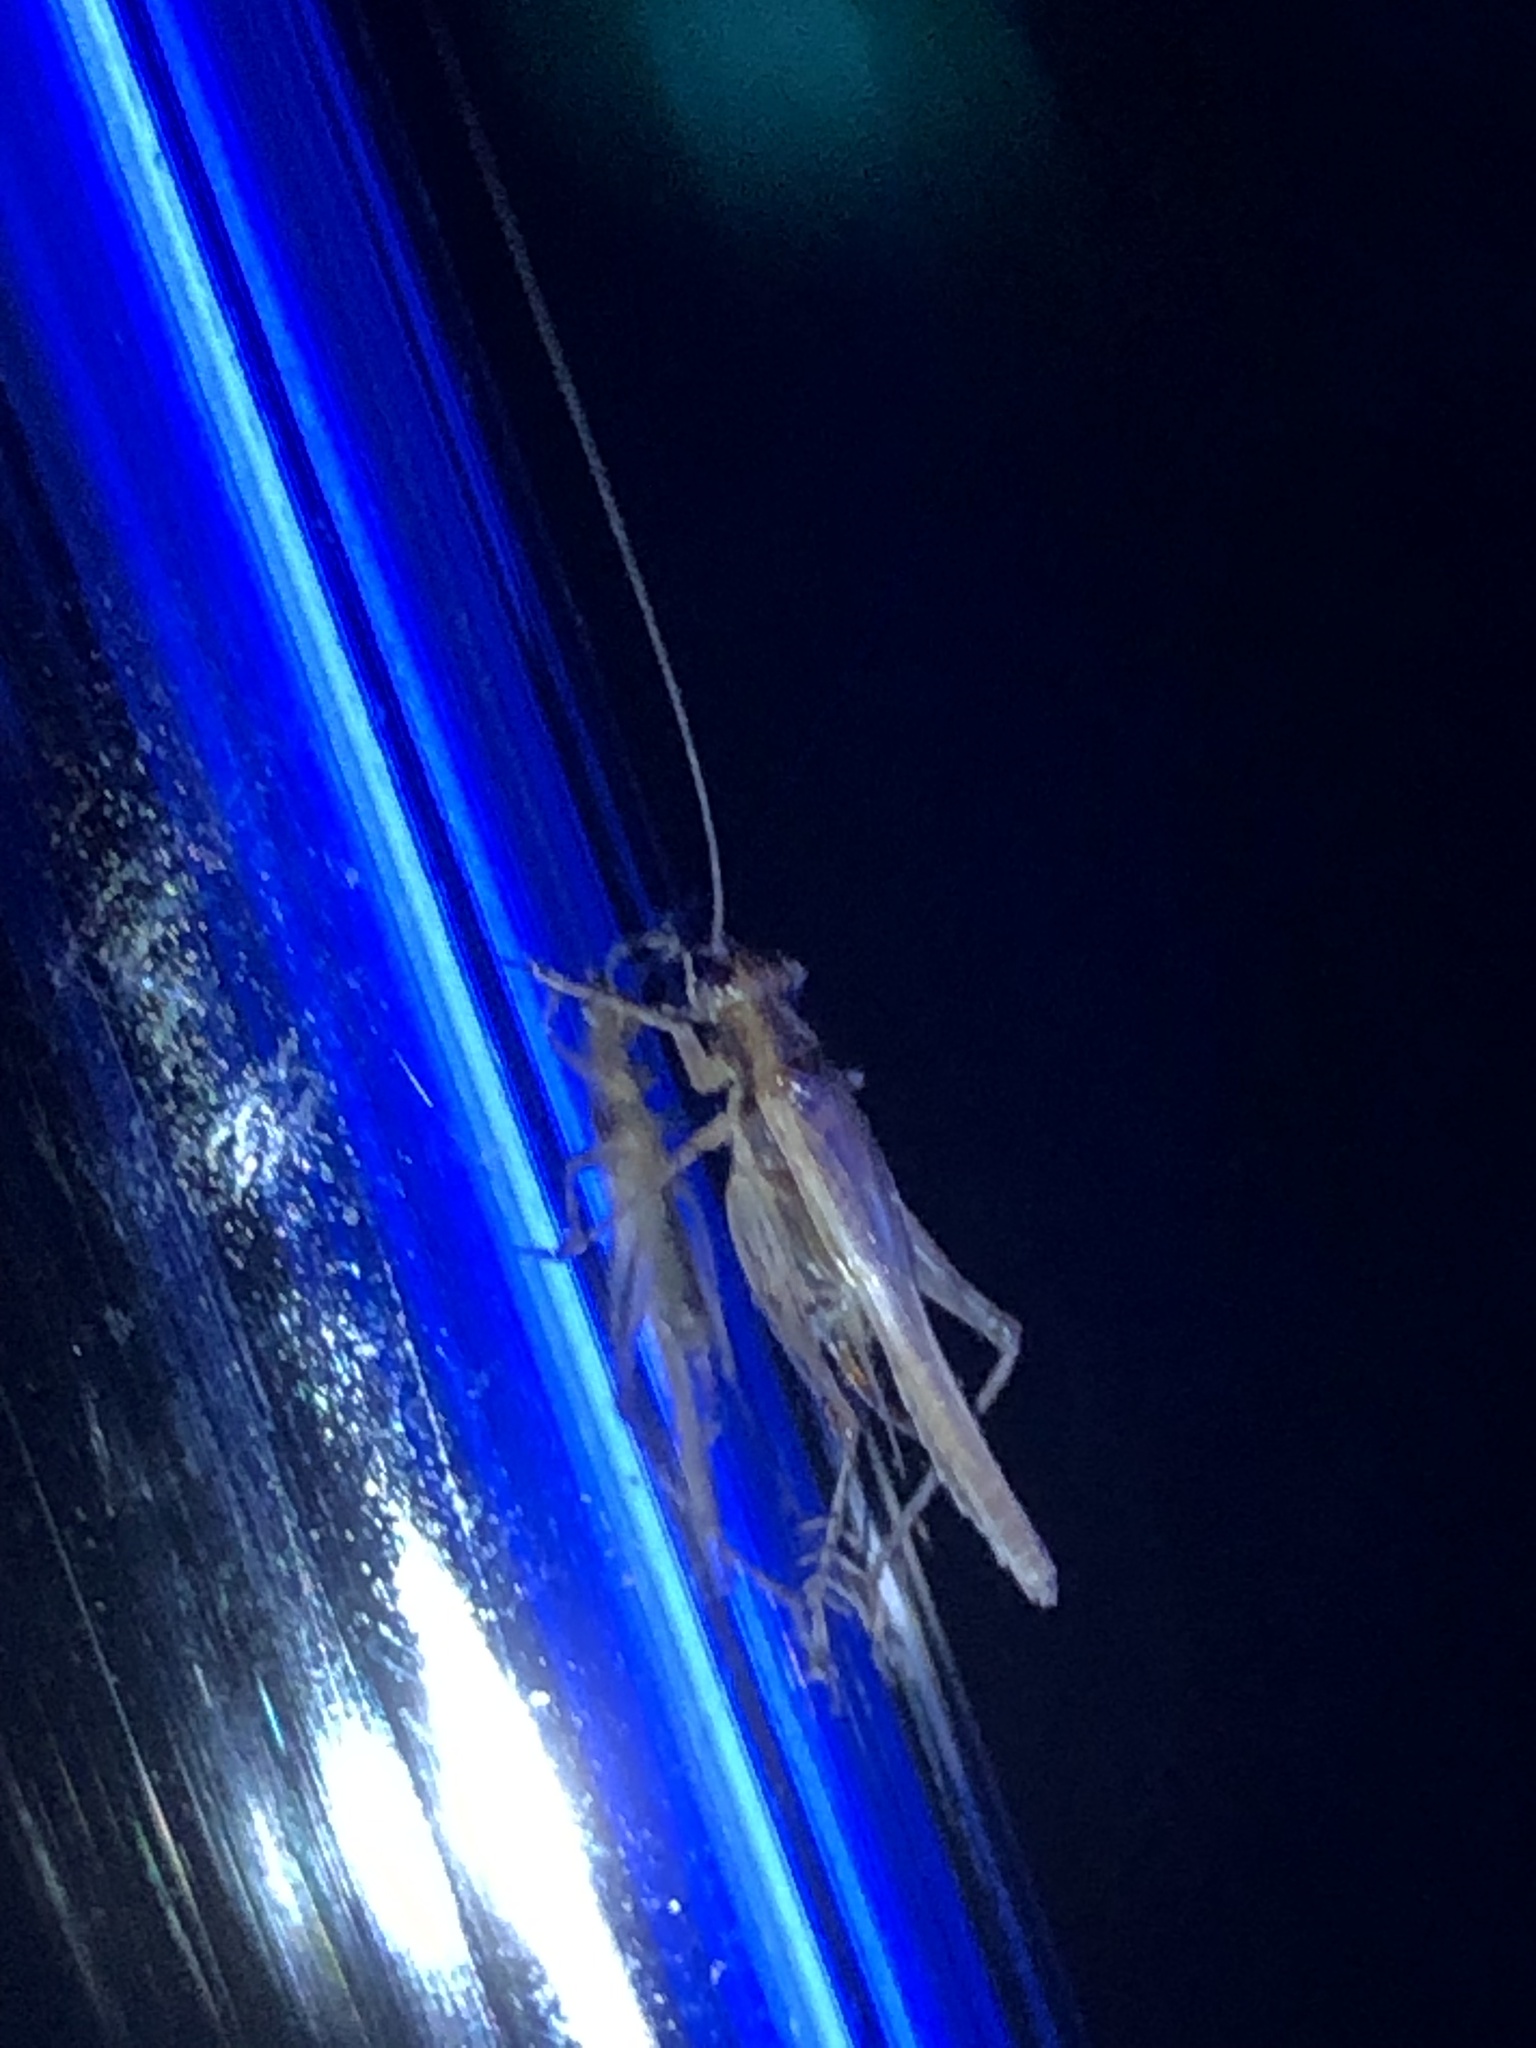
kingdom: Animalia
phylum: Arthropoda
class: Insecta
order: Orthoptera
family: Trigonidiidae
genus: Anaxipha
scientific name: Anaxipha exigua
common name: Say's bush cricket
